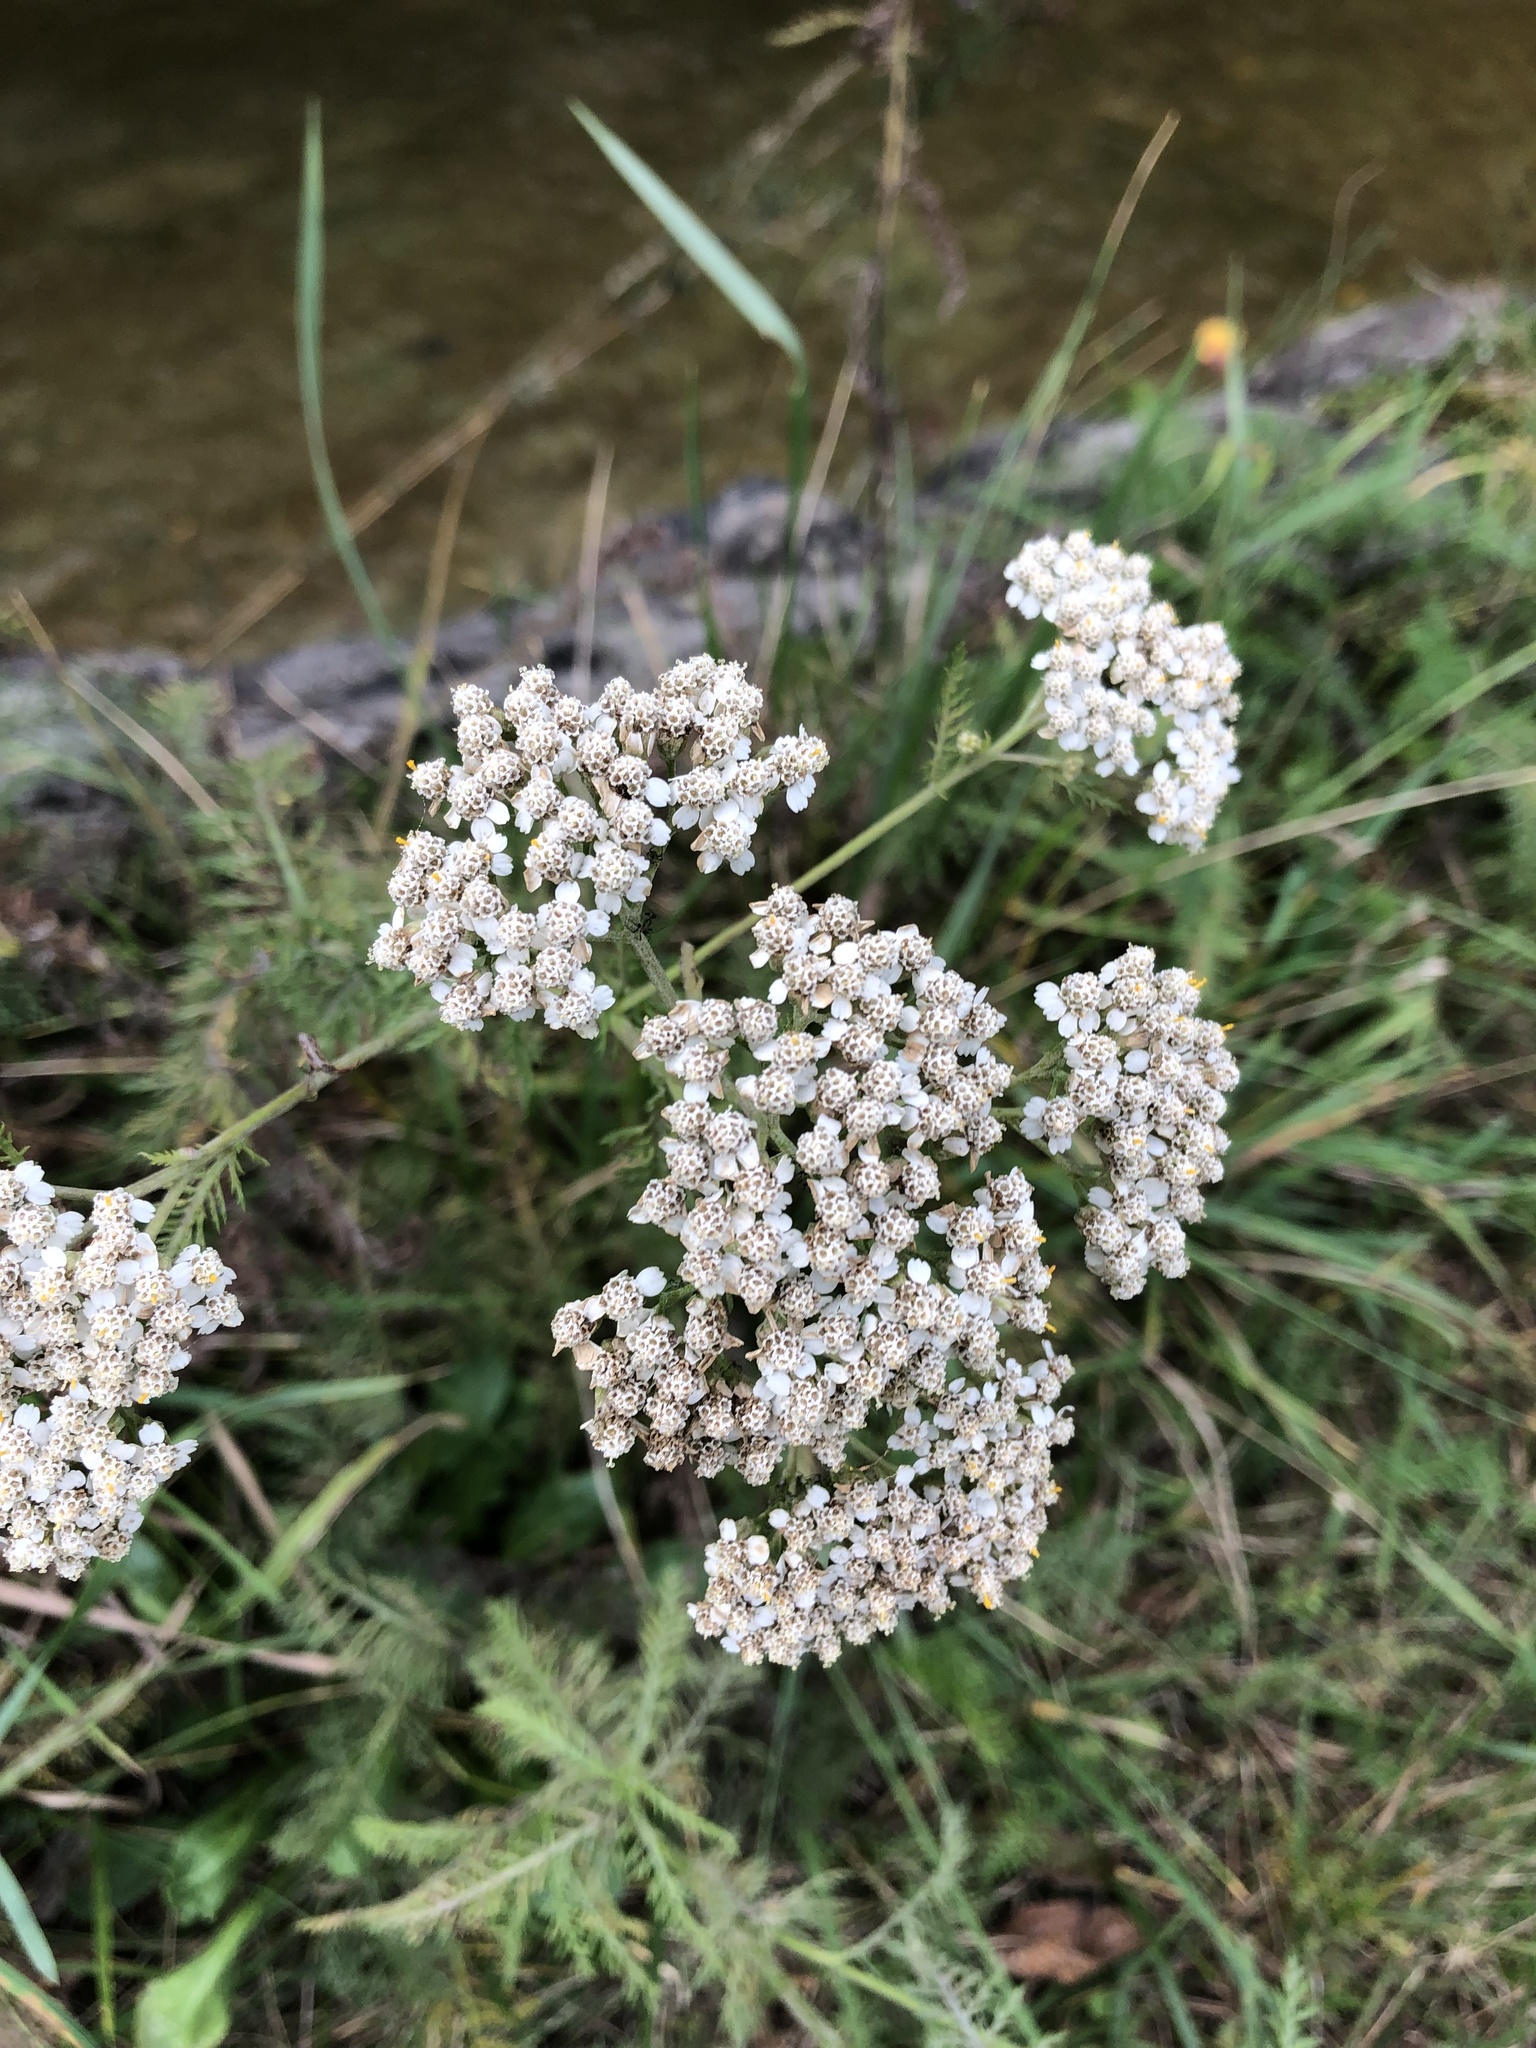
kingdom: Plantae
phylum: Tracheophyta
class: Magnoliopsida
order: Asterales
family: Asteraceae
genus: Achillea
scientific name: Achillea millefolium
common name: Yarrow
